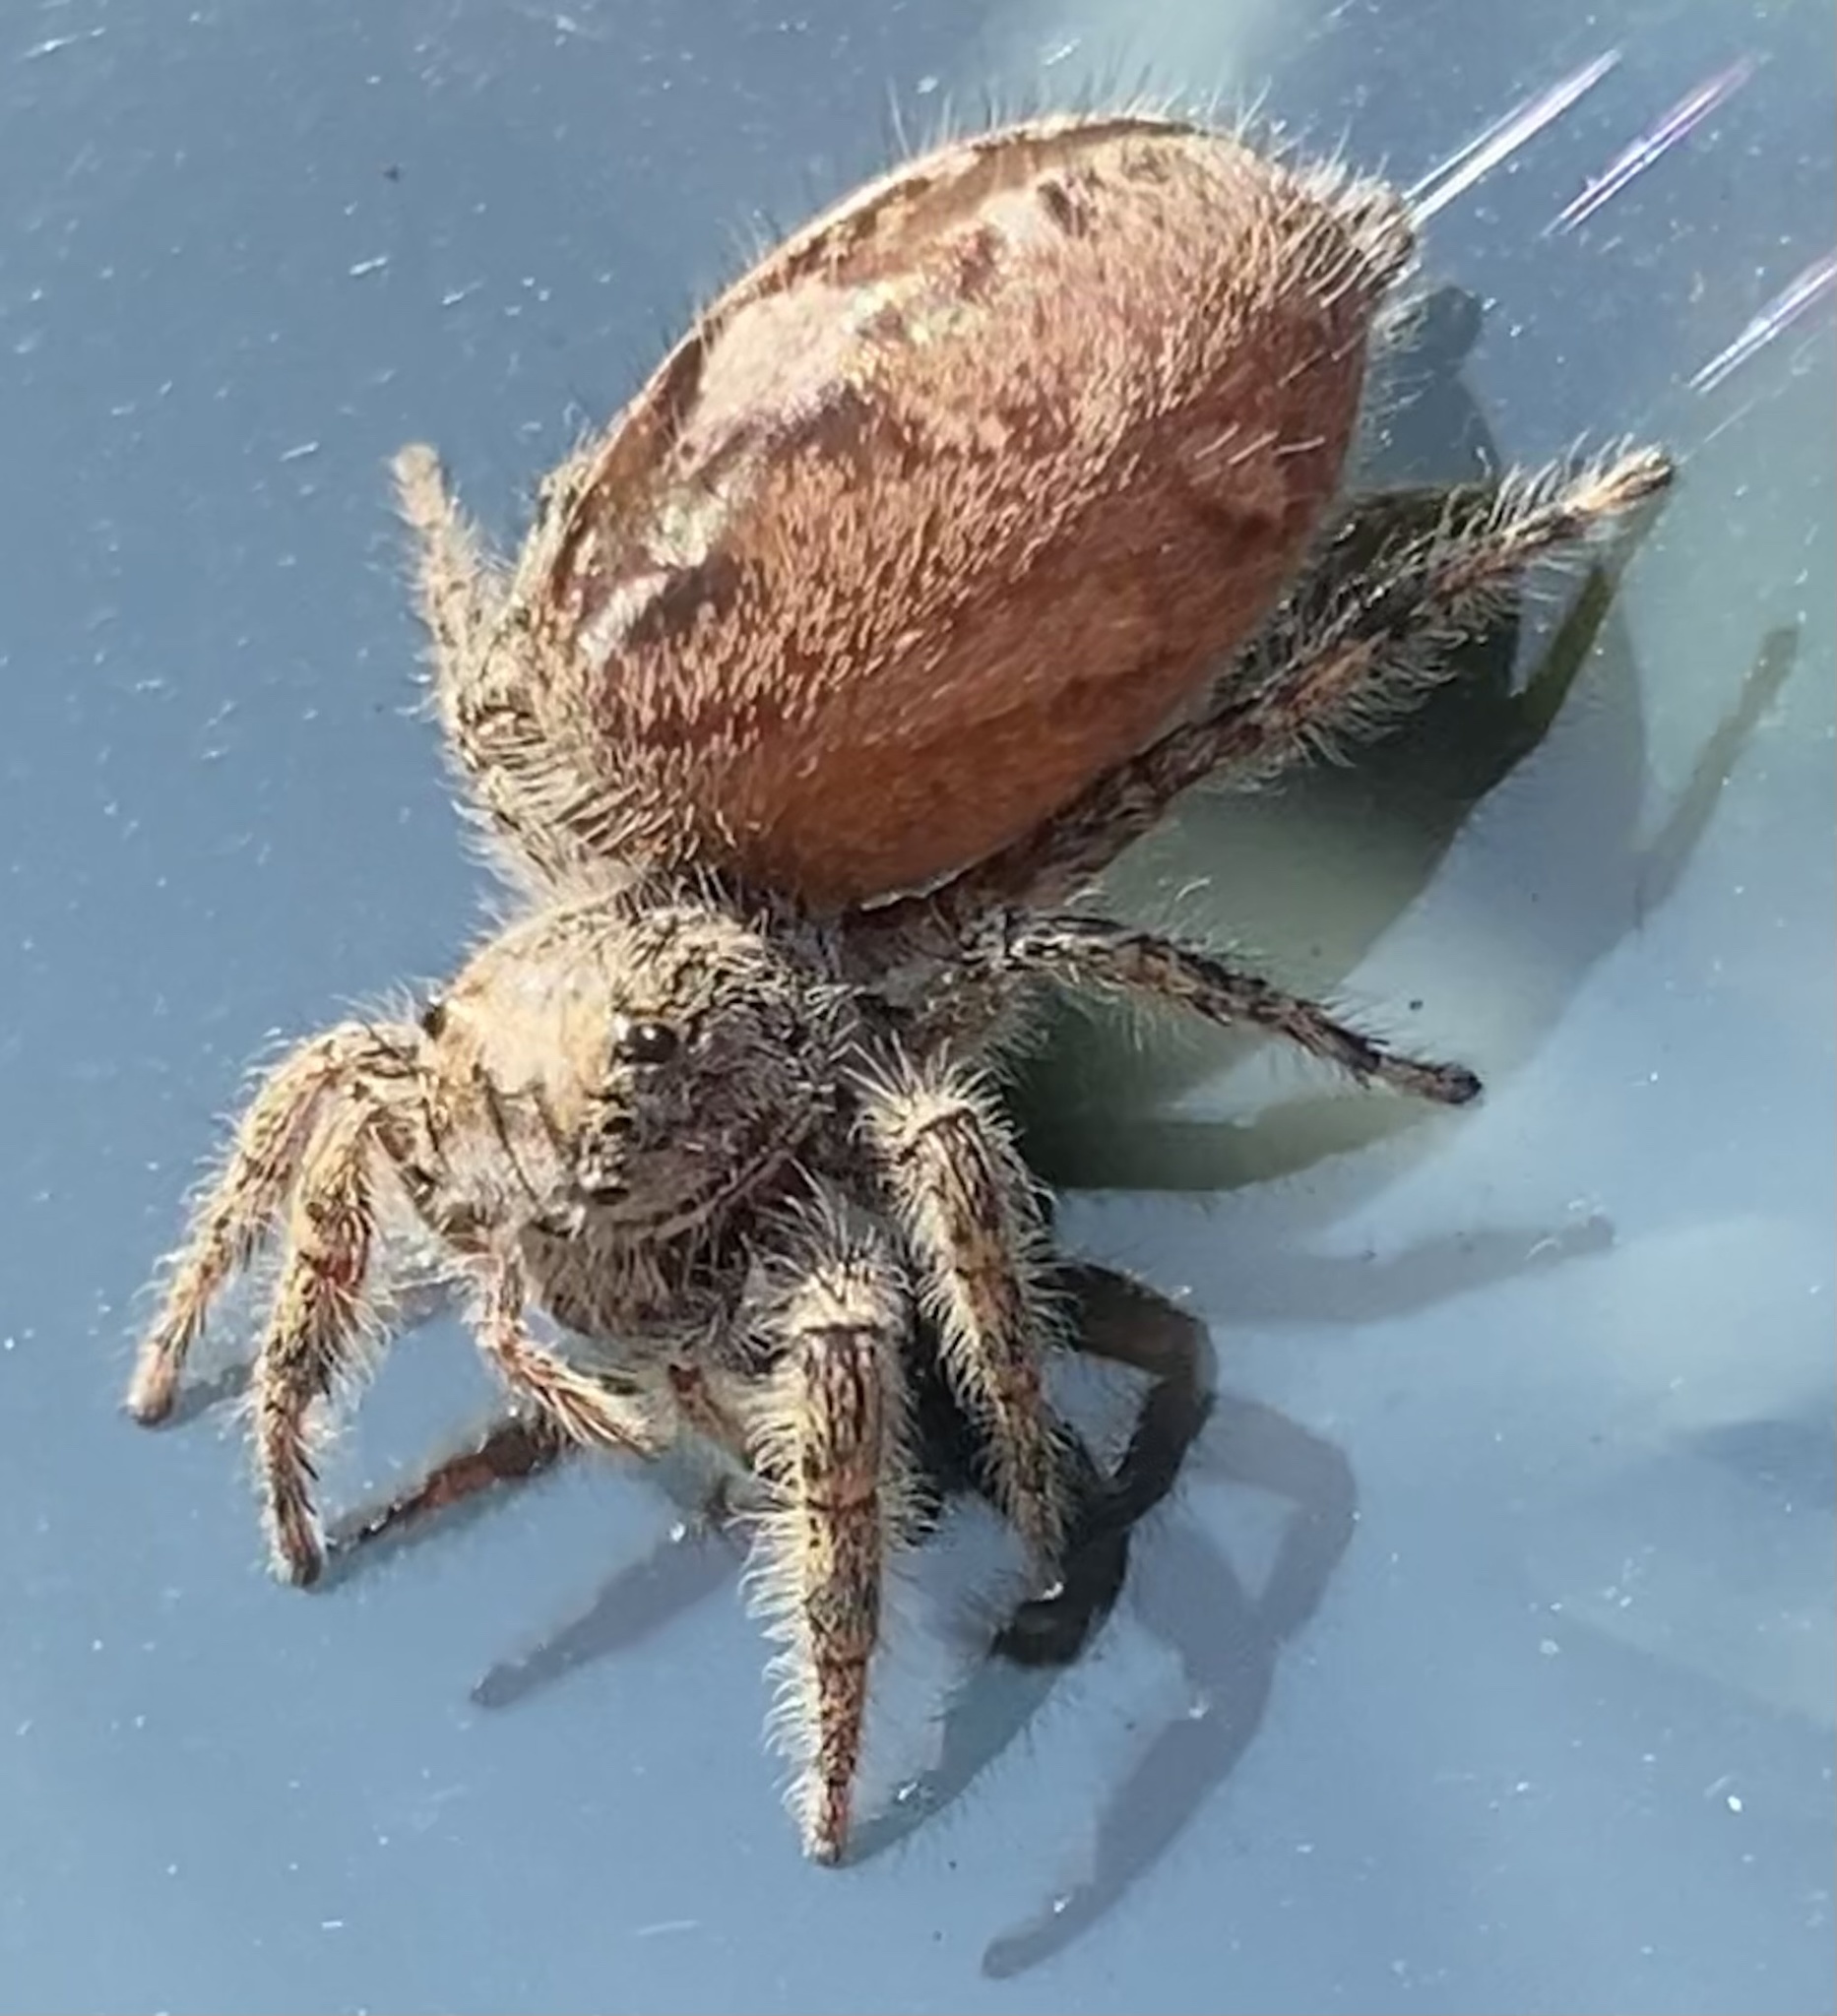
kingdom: Animalia
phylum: Arthropoda
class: Arachnida
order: Araneae
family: Salticidae
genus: Phidippus
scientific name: Phidippus putnami
